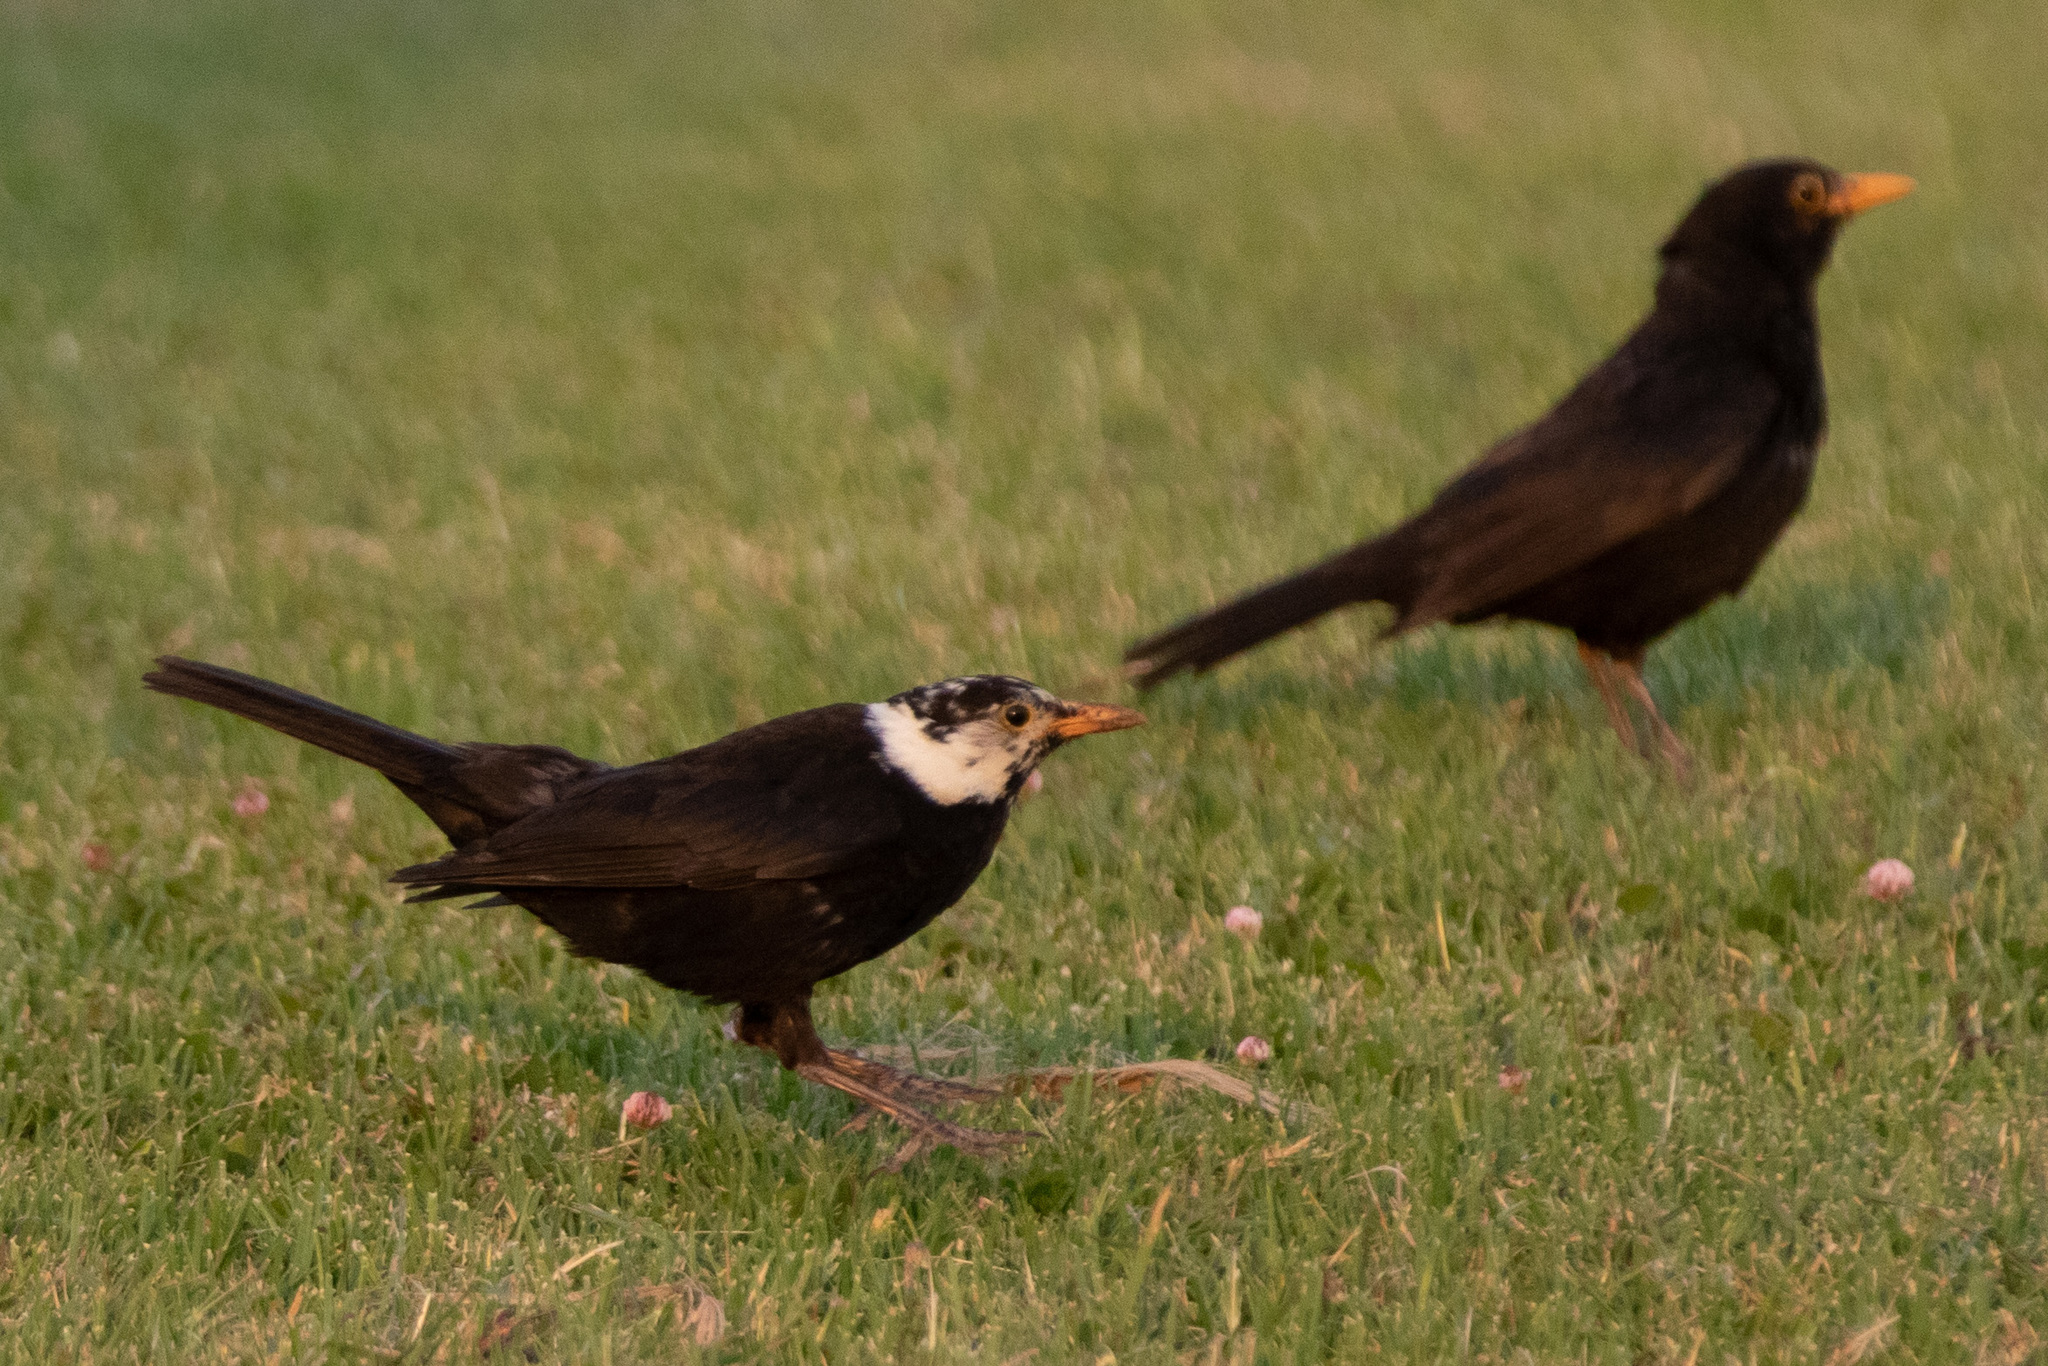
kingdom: Animalia
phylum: Chordata
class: Aves
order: Passeriformes
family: Turdidae
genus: Turdus
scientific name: Turdus merula
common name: Common blackbird
